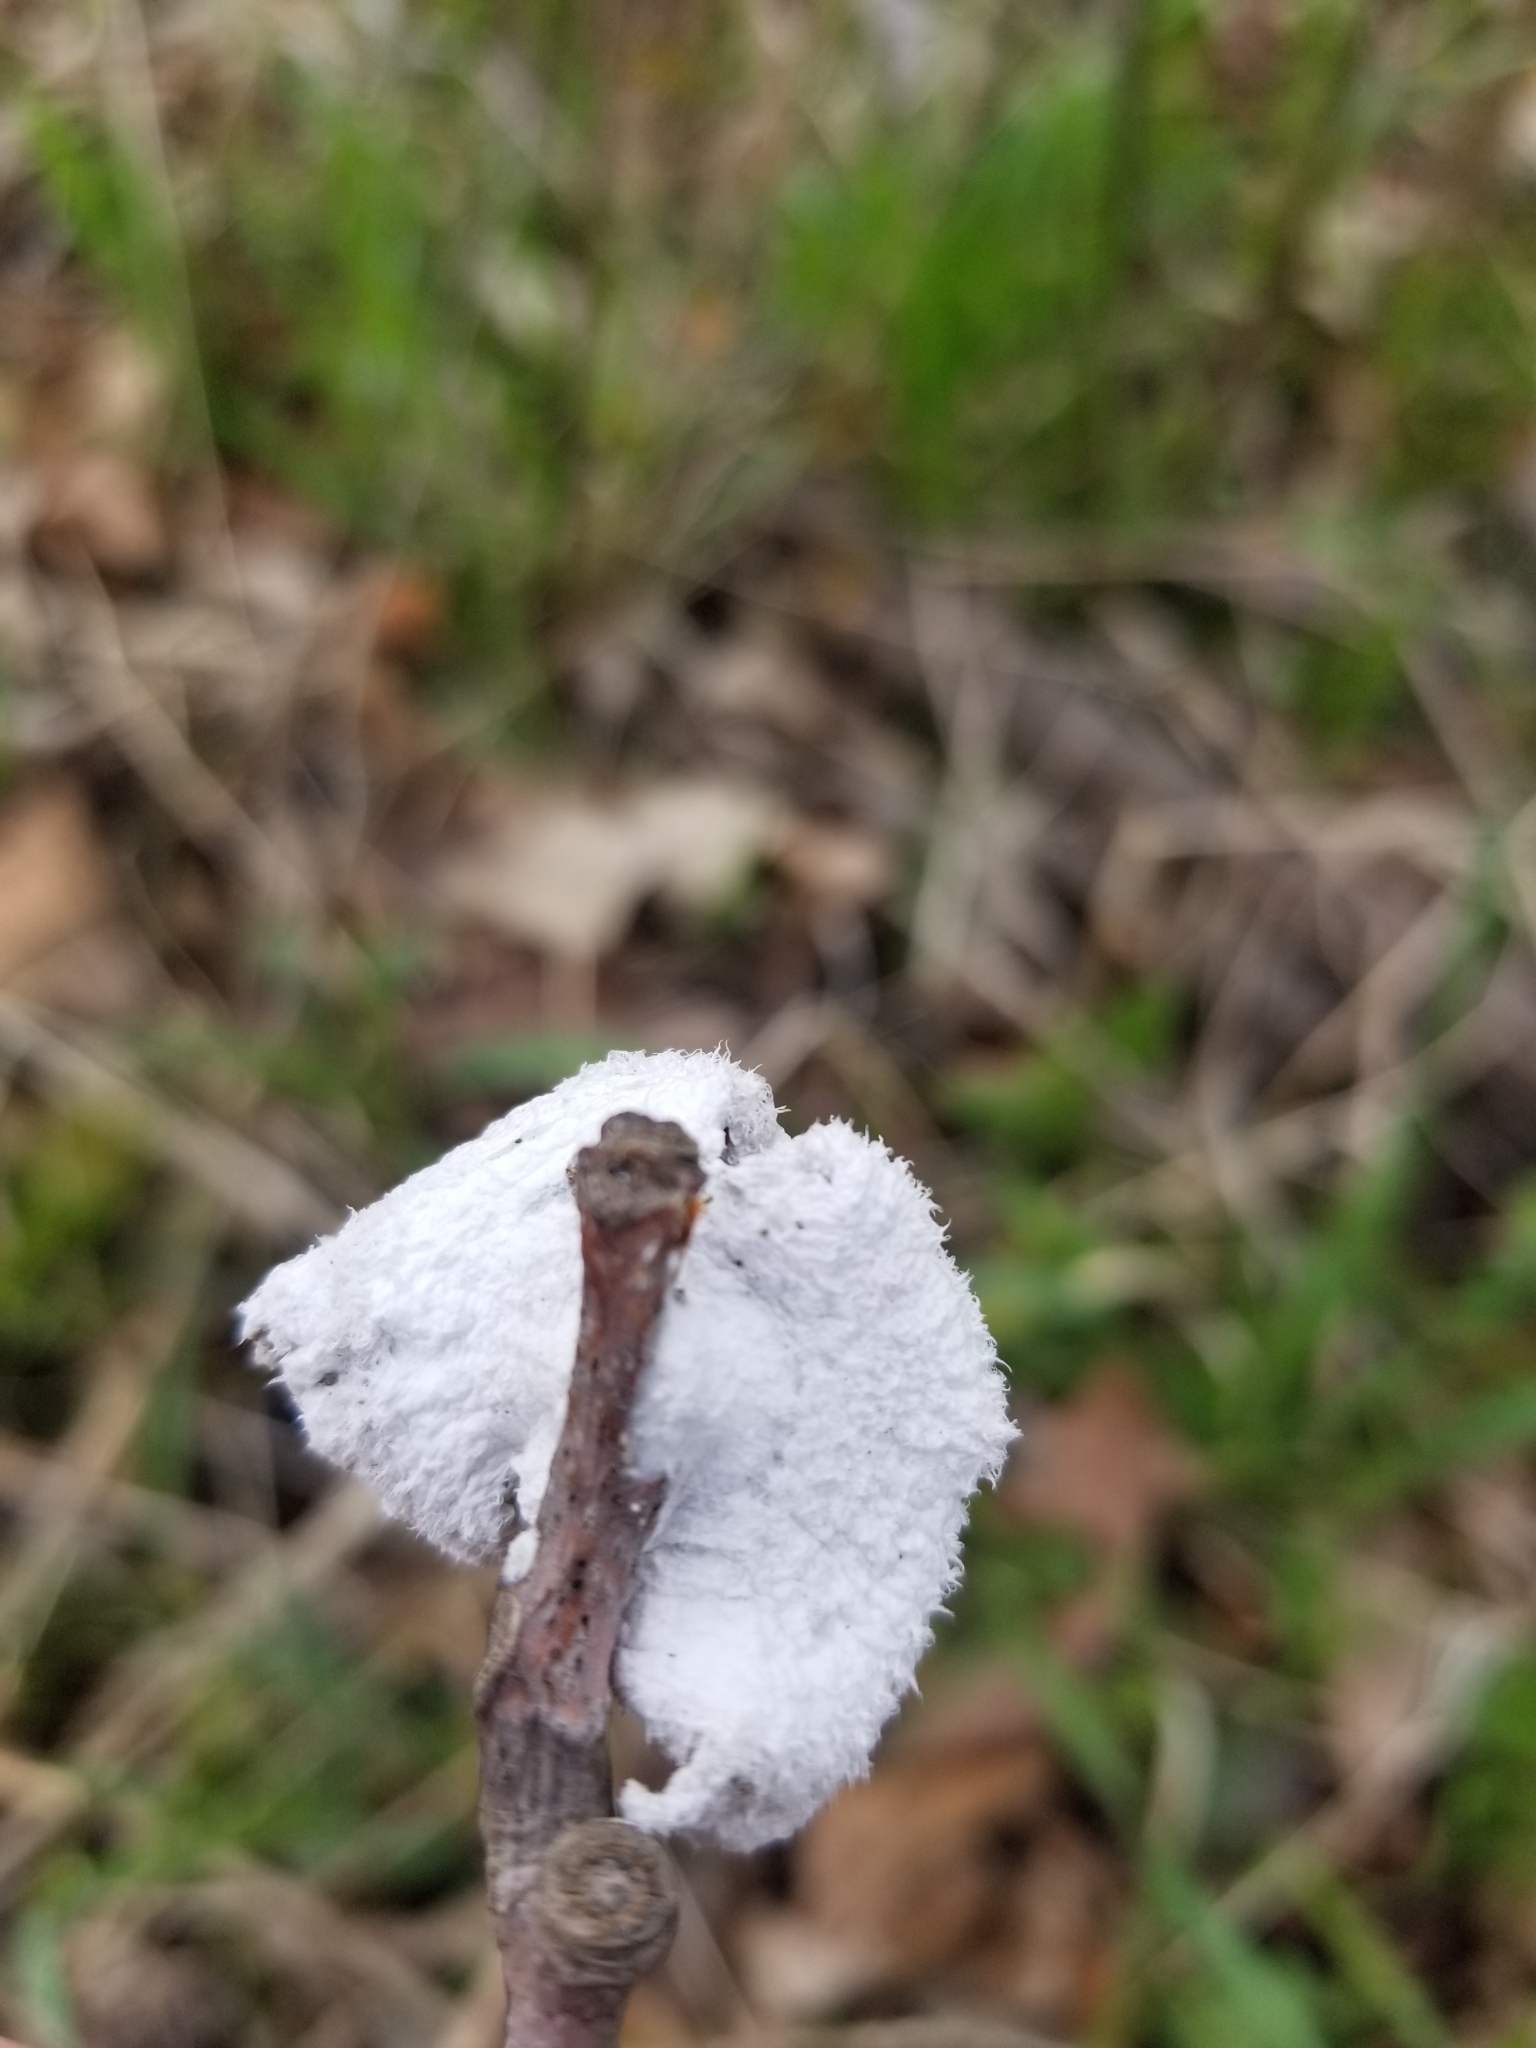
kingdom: Fungi
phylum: Basidiomycota
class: Agaricomycetes
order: Agaricales
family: Schizophyllaceae
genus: Schizophyllum
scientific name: Schizophyllum commune
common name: Common porecrust
